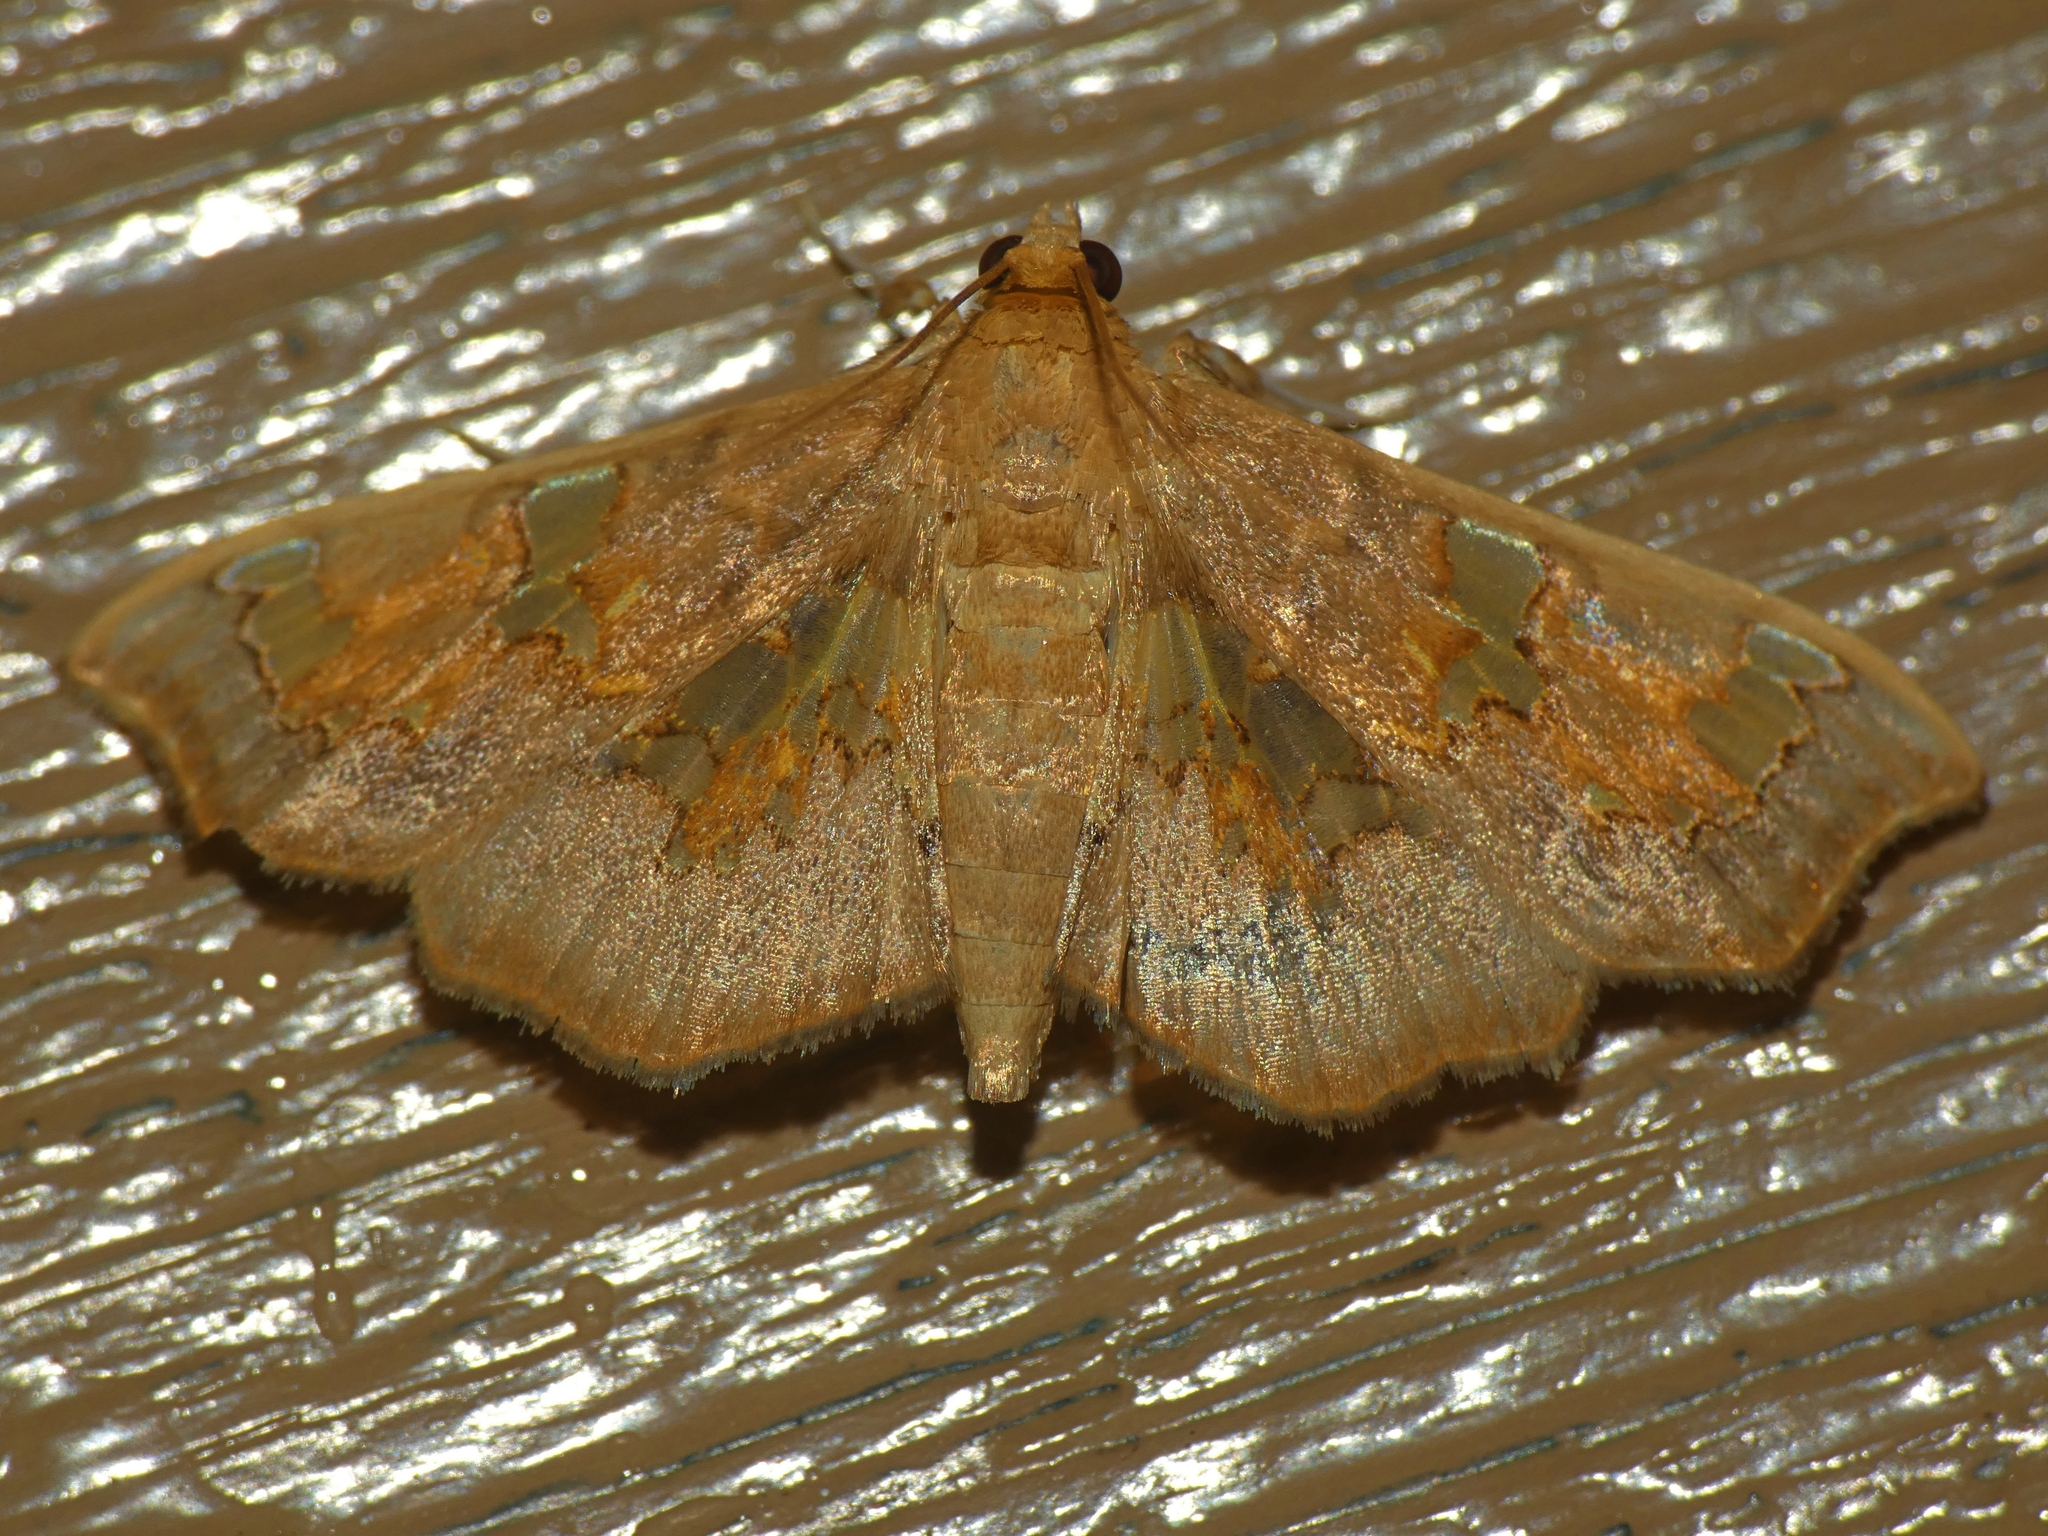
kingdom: Animalia
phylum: Arthropoda
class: Insecta
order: Lepidoptera
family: Crambidae
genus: Chrysothyridia
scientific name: Chrysothyridia invertalis
